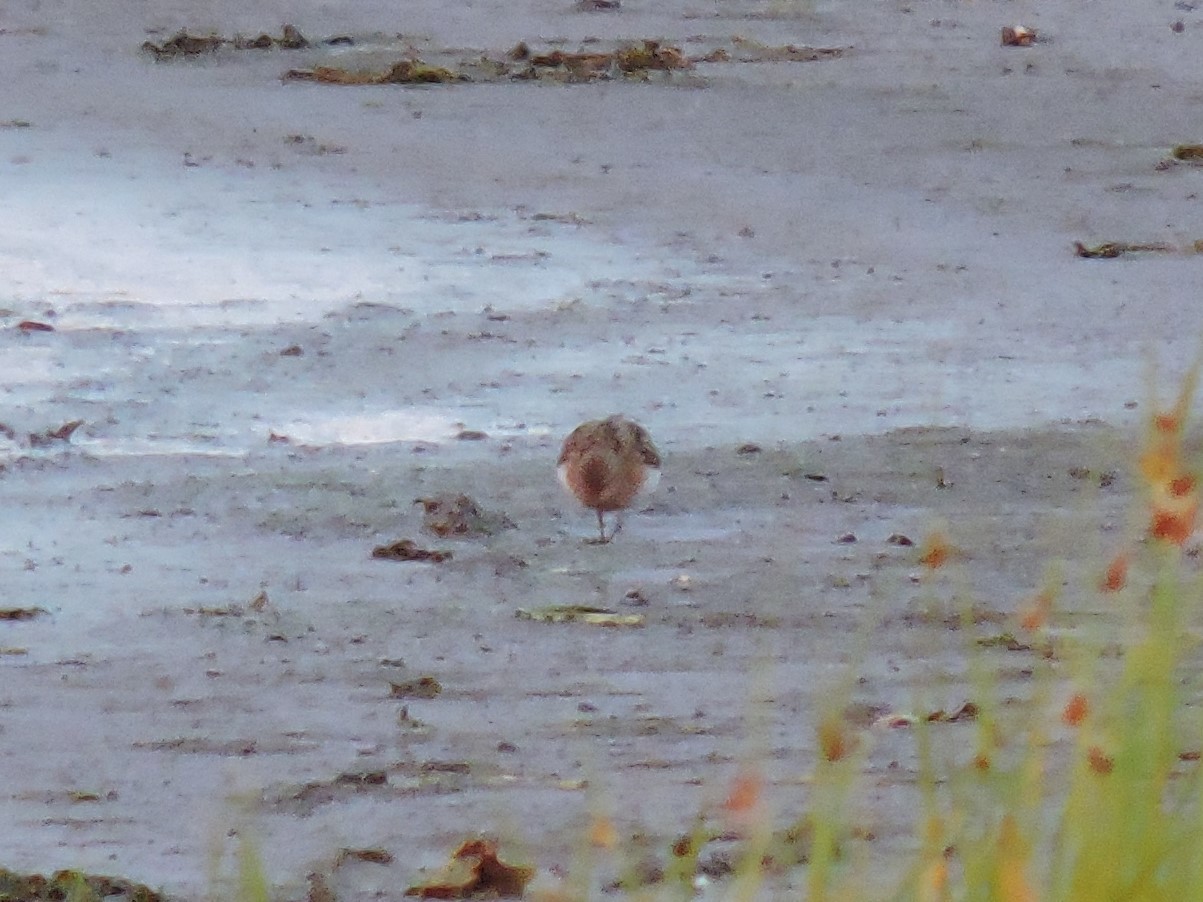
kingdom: Animalia
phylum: Chordata
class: Aves
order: Charadriiformes
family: Scolopacidae
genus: Calidris
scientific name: Calidris temminckii
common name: Temminck's stint
